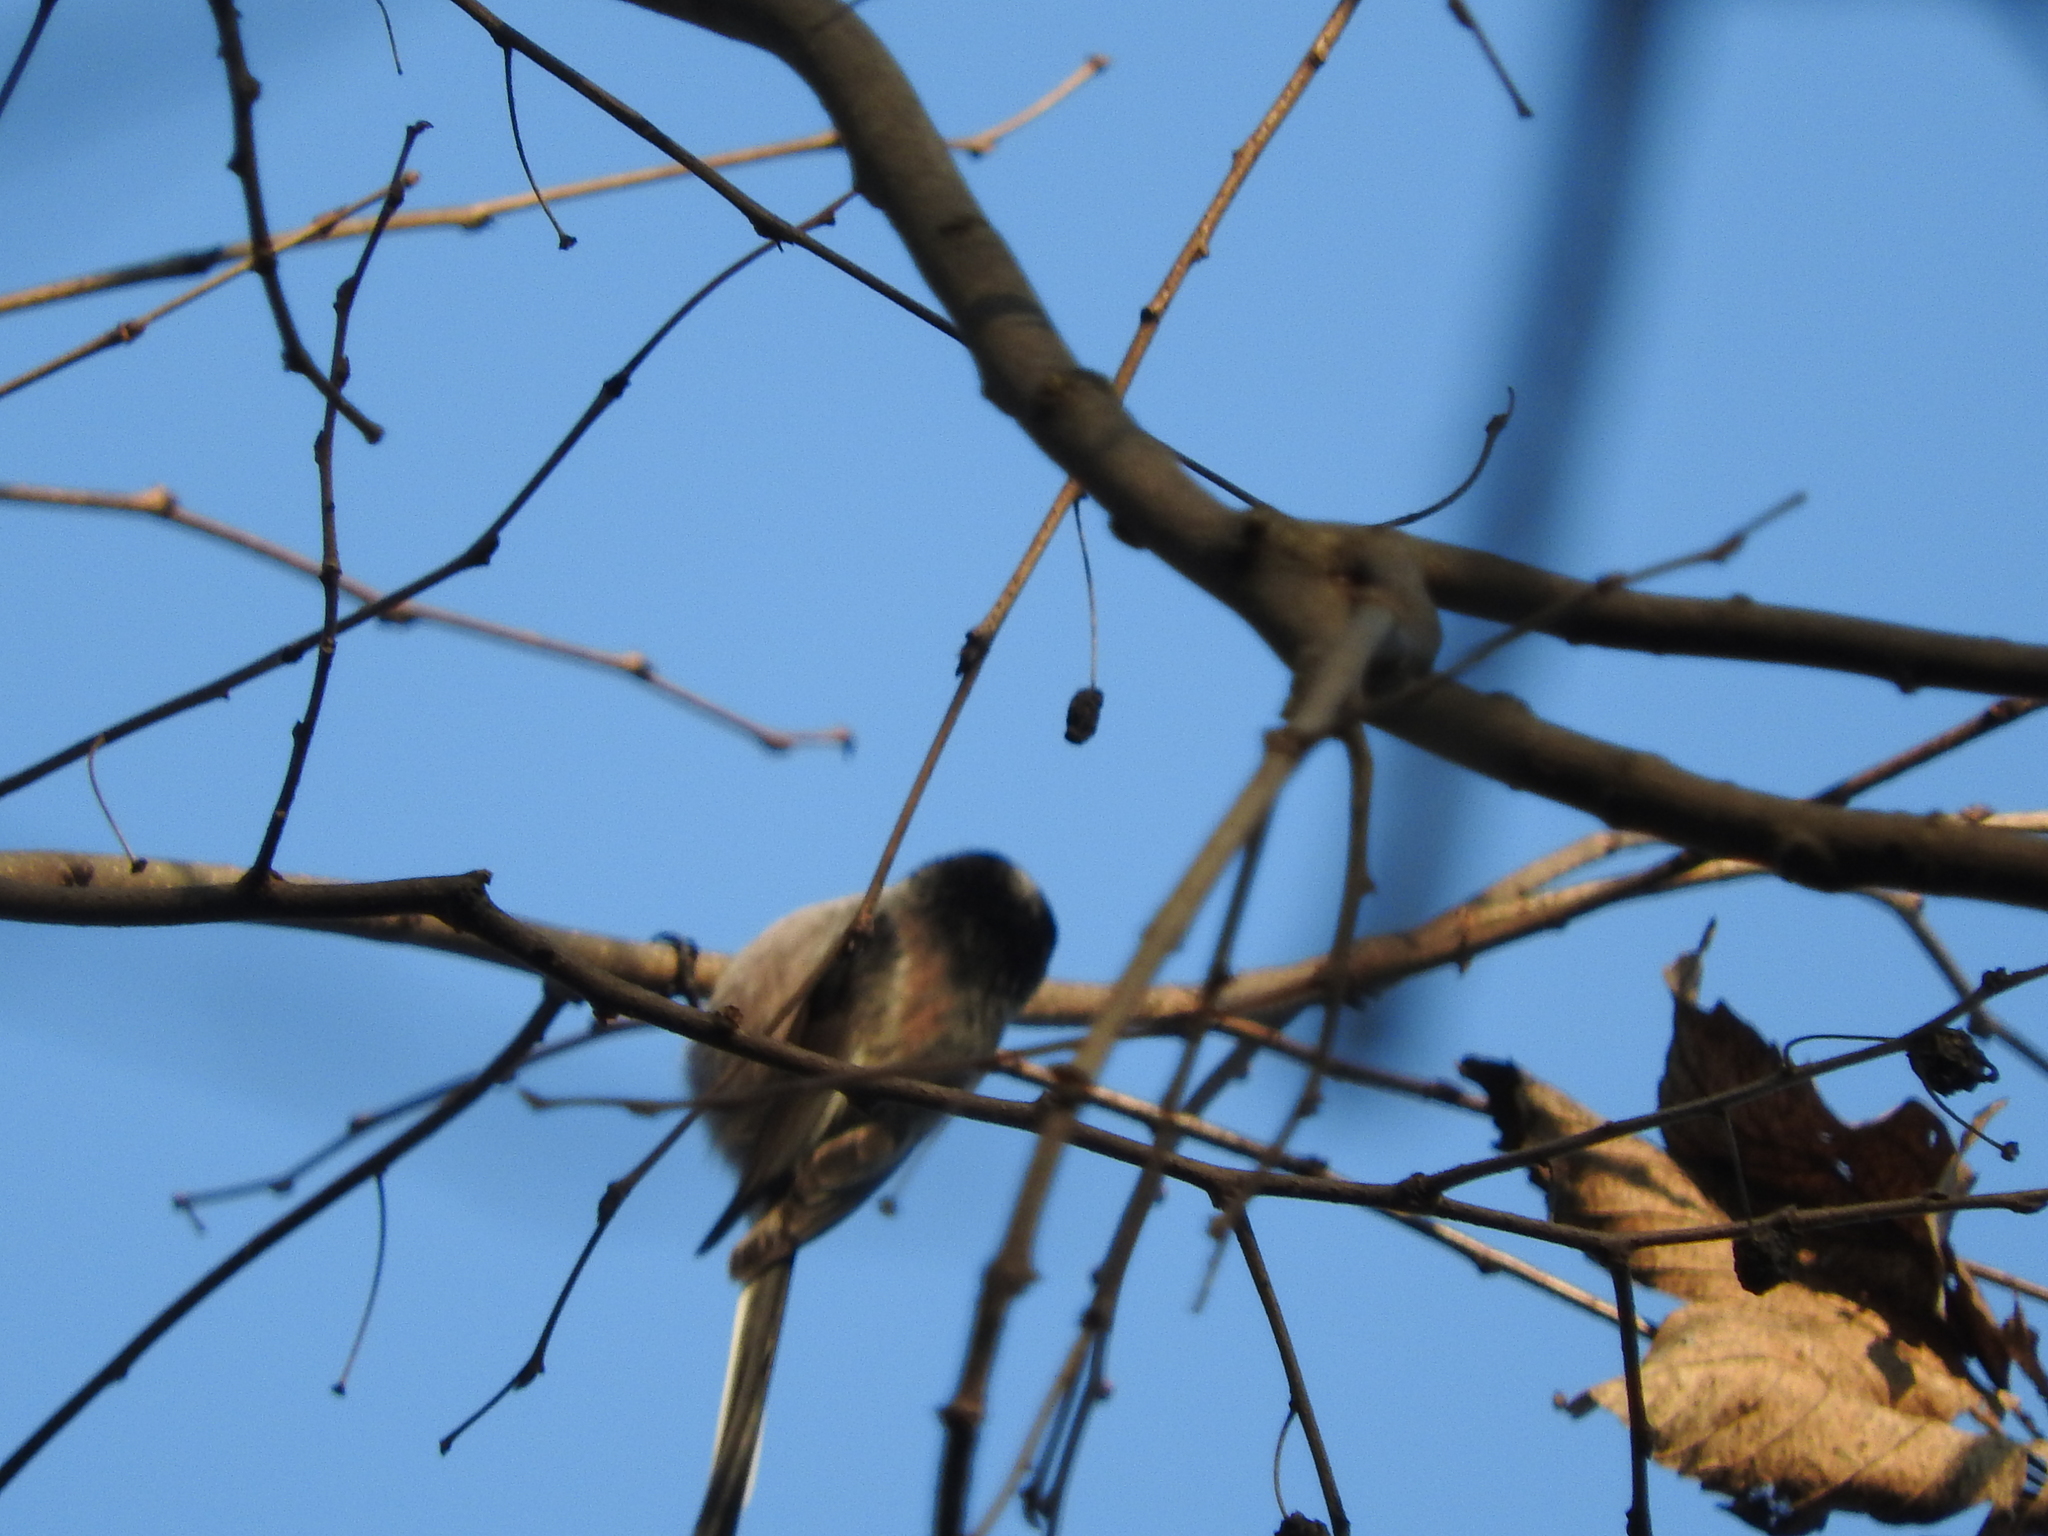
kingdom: Animalia
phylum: Chordata
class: Aves
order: Passeriformes
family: Aegithalidae
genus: Aegithalos
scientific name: Aegithalos caudatus
